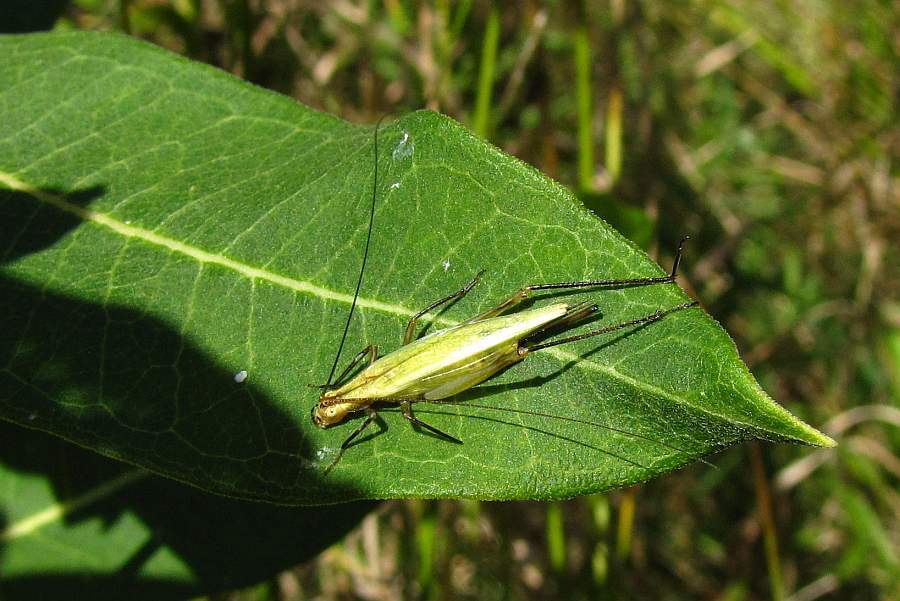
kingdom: Animalia
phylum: Arthropoda
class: Insecta
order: Orthoptera
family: Gryllidae
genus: Oecanthus
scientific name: Oecanthus nigricornis
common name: Black-horned tree cricket
